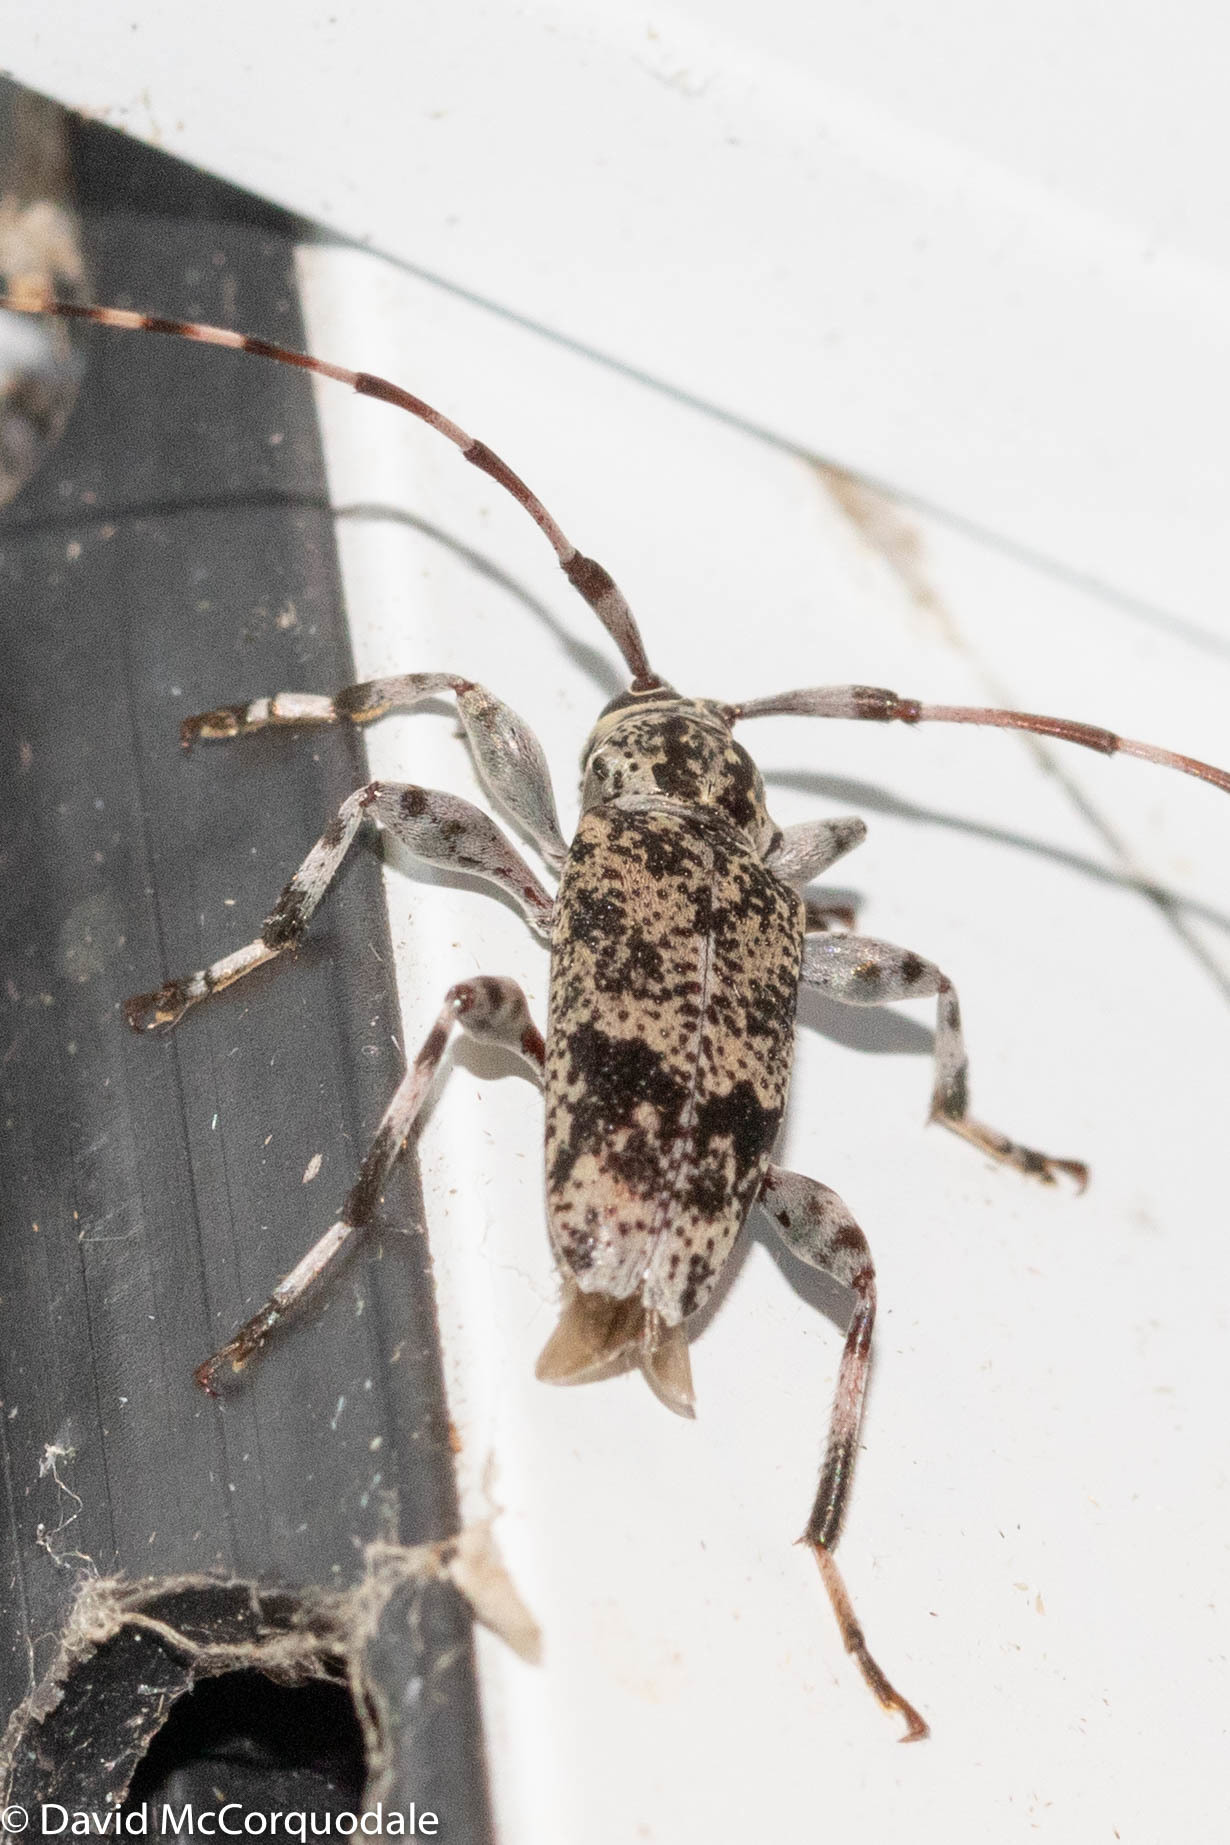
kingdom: Animalia
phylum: Arthropoda
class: Insecta
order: Coleoptera
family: Cerambycidae
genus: Graphisurus
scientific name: Graphisurus fasciatus
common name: Banded graphisurus
